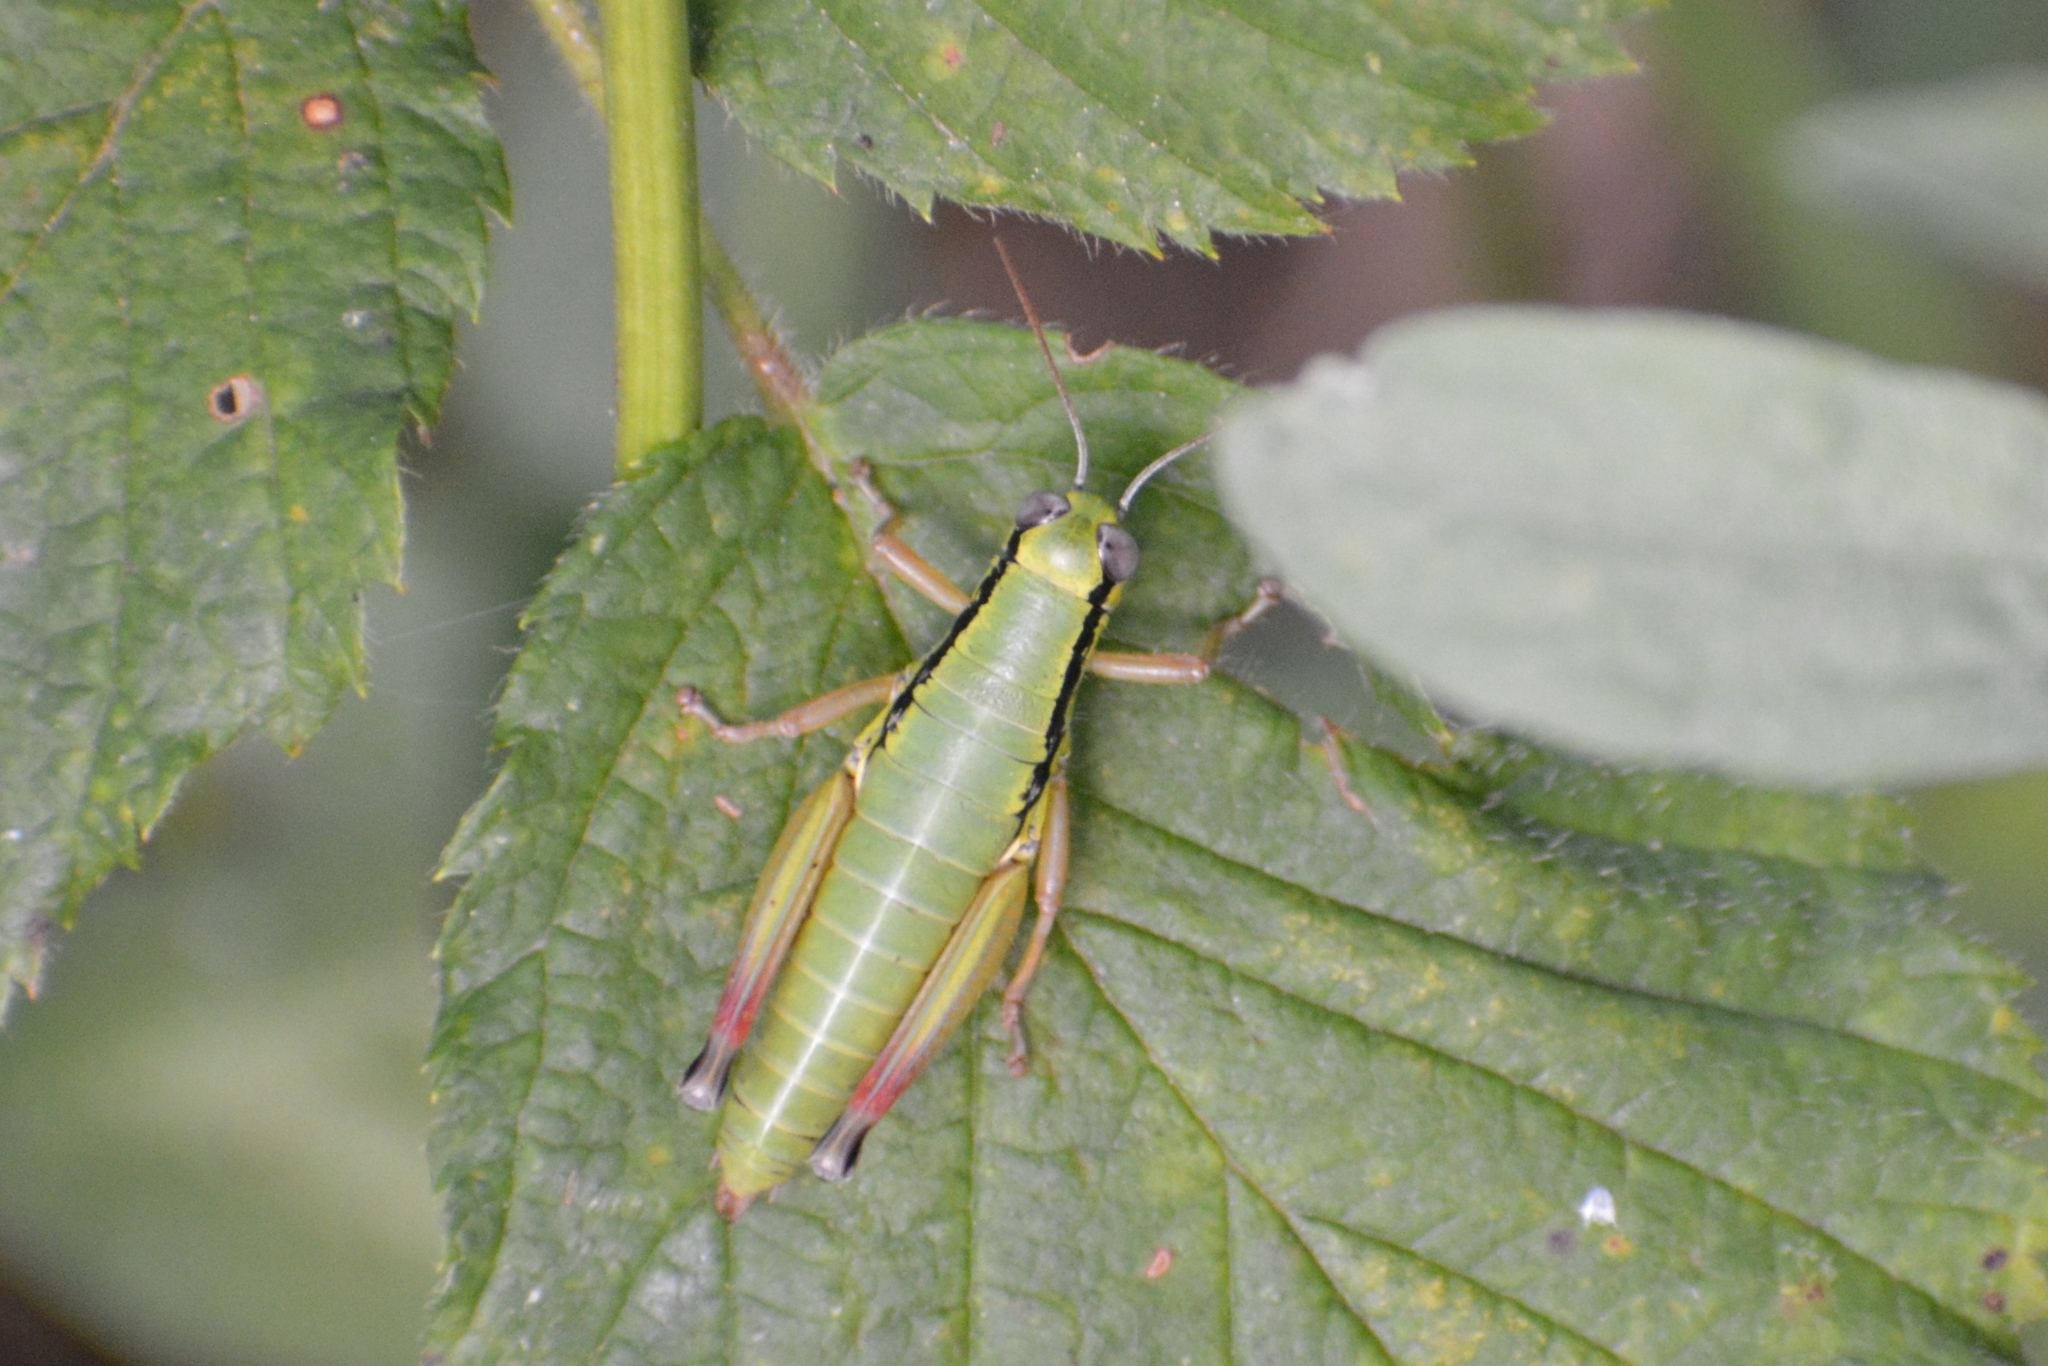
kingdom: Animalia
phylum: Arthropoda
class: Insecta
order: Orthoptera
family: Acrididae
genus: Micropodisma
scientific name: Micropodisma salamandra
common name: Foothill mountain grasshopper
